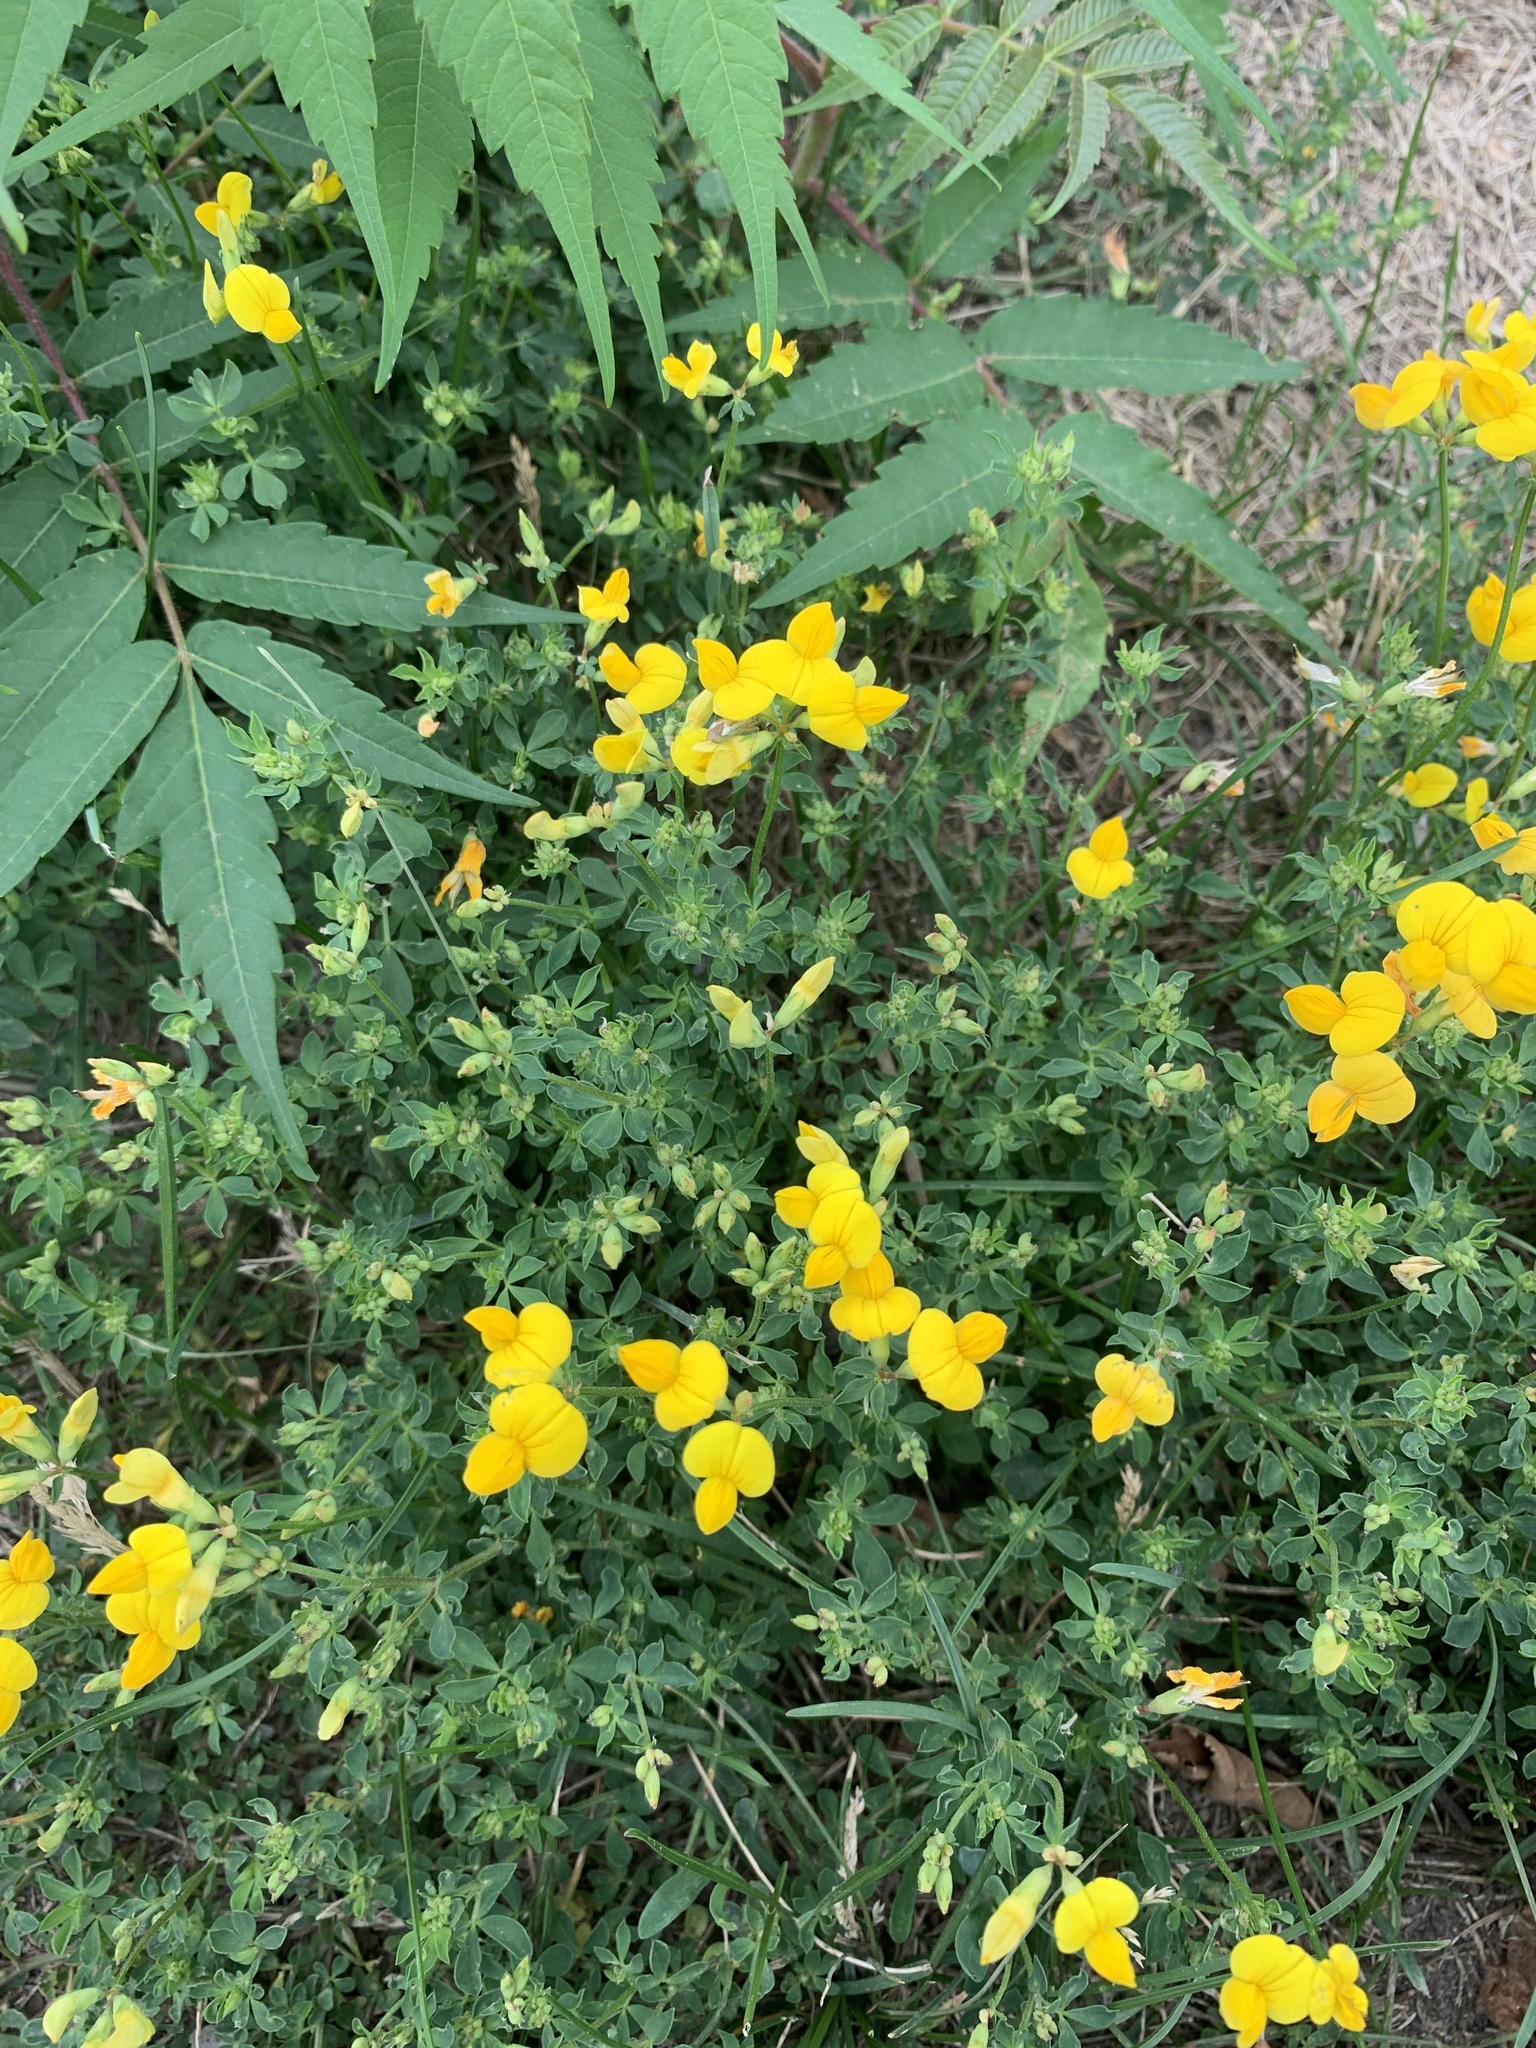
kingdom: Plantae
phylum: Tracheophyta
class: Magnoliopsida
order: Fabales
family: Fabaceae
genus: Lotus
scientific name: Lotus corniculatus
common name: Common bird's-foot-trefoil
